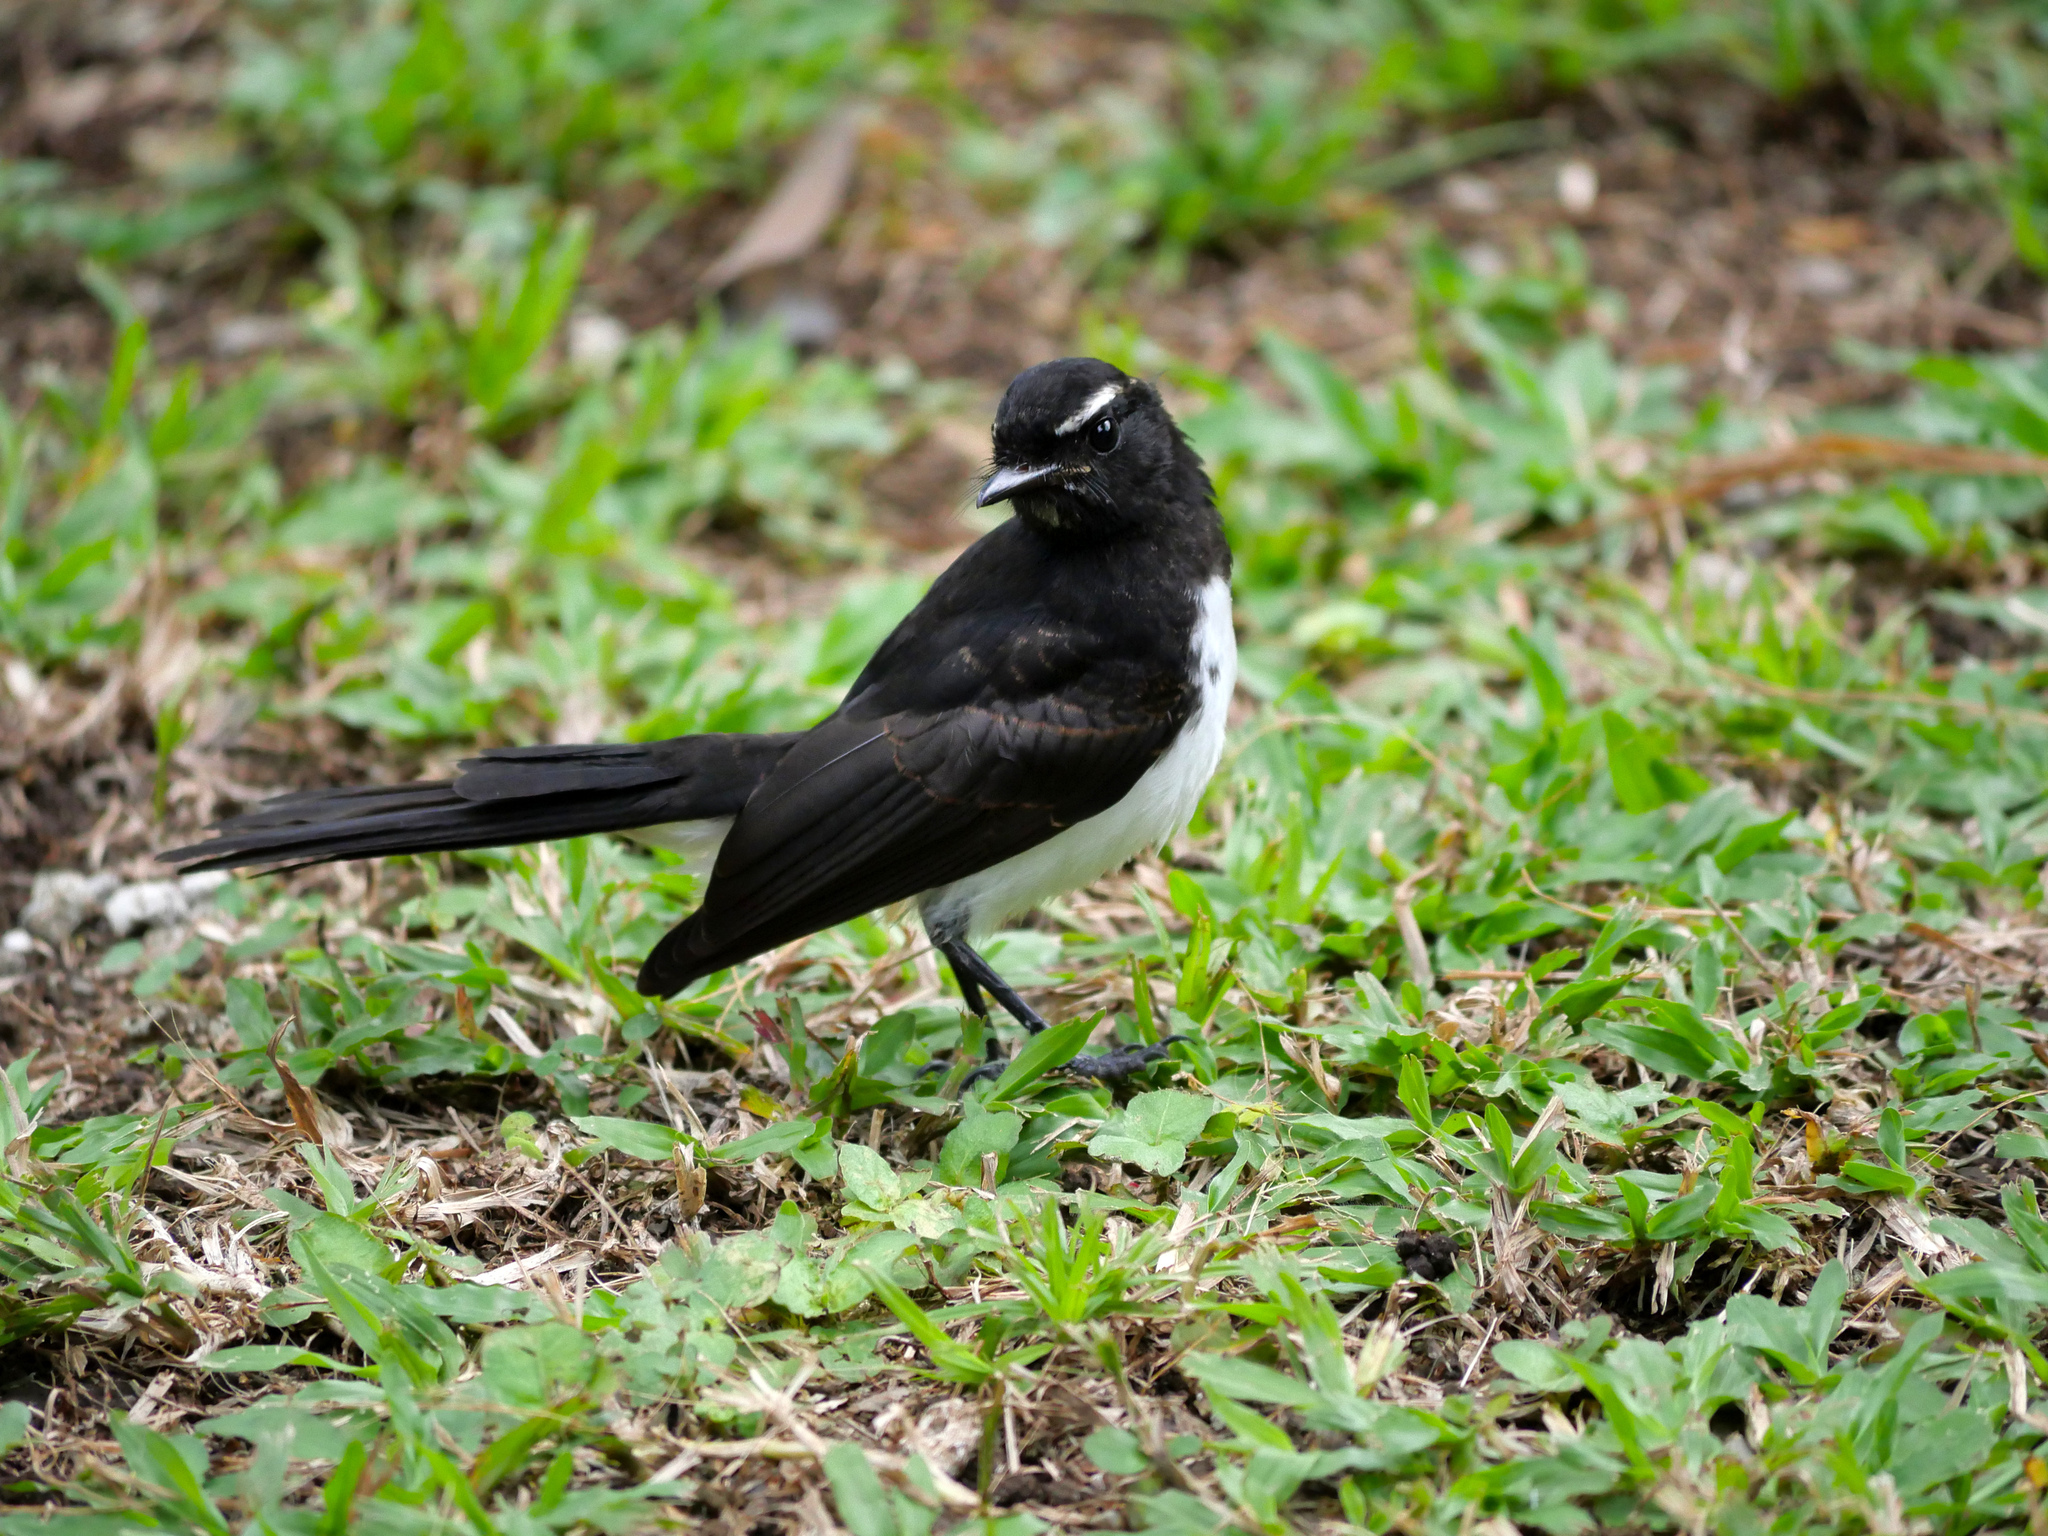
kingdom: Animalia
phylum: Chordata
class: Aves
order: Passeriformes
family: Rhipiduridae
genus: Rhipidura
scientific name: Rhipidura leucophrys
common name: Willie wagtail
